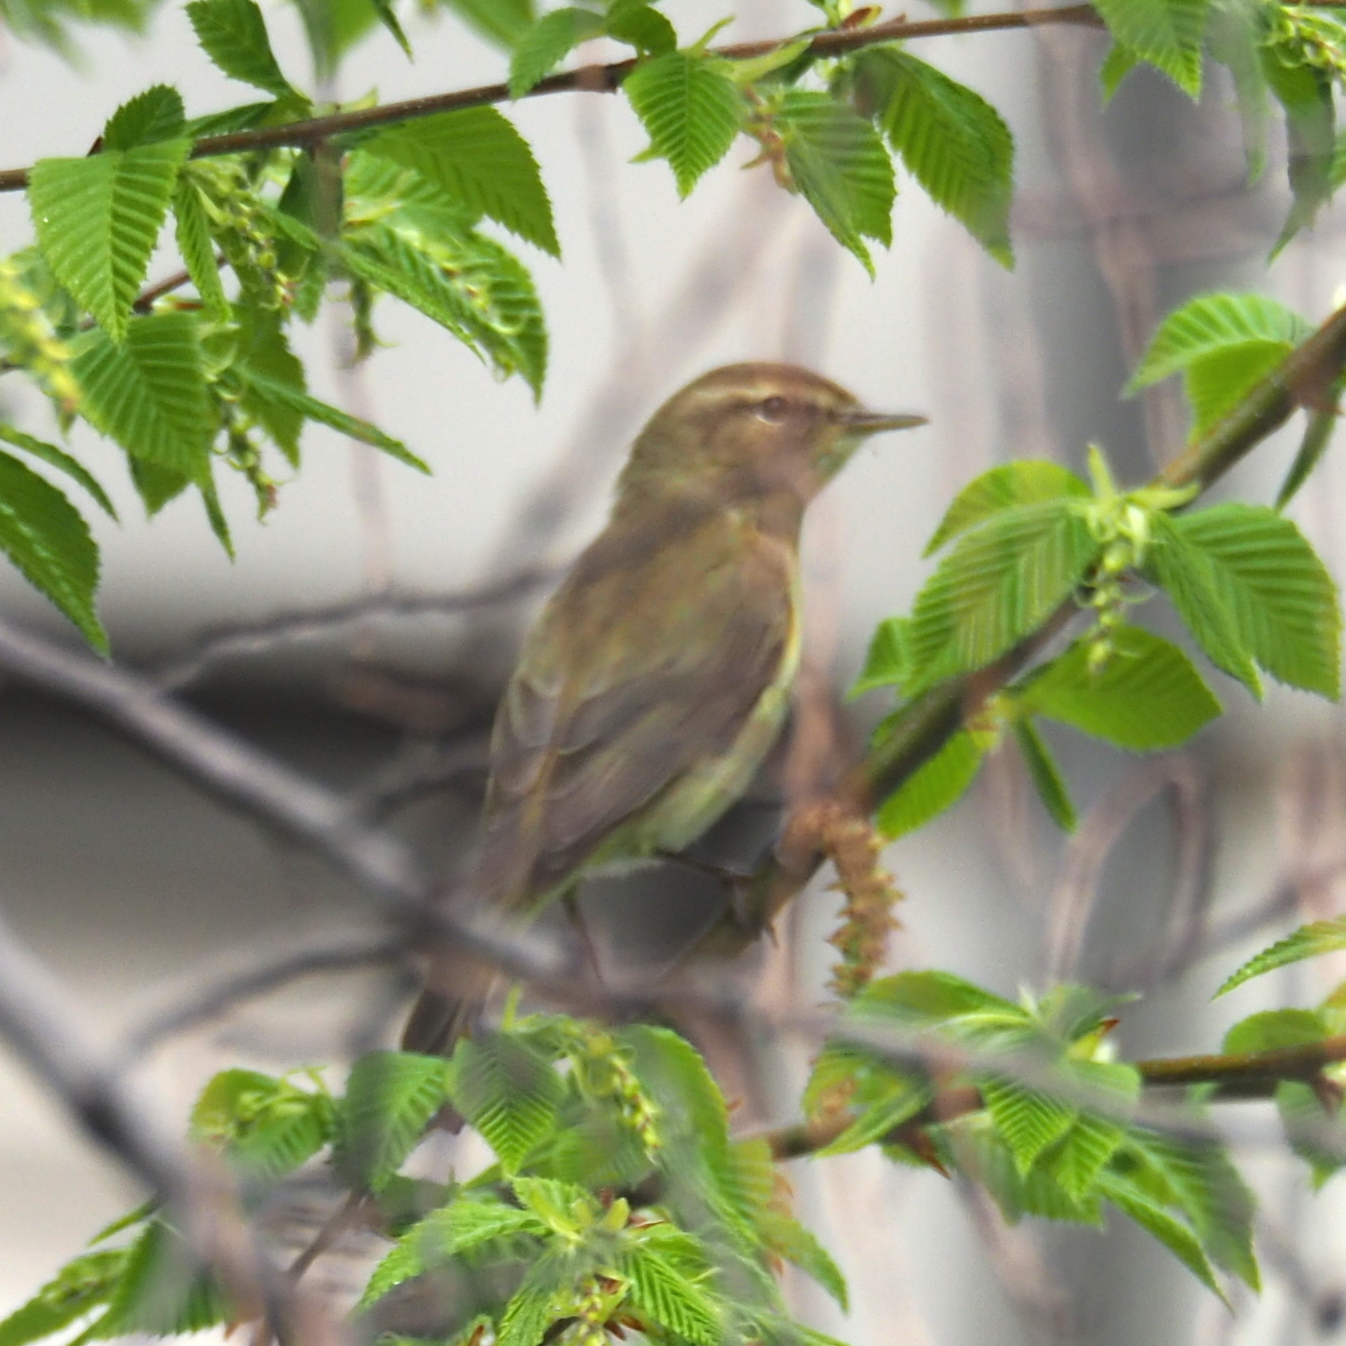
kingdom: Animalia
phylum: Chordata
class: Aves
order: Passeriformes
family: Phylloscopidae
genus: Phylloscopus
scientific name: Phylloscopus collybita
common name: Common chiffchaff
